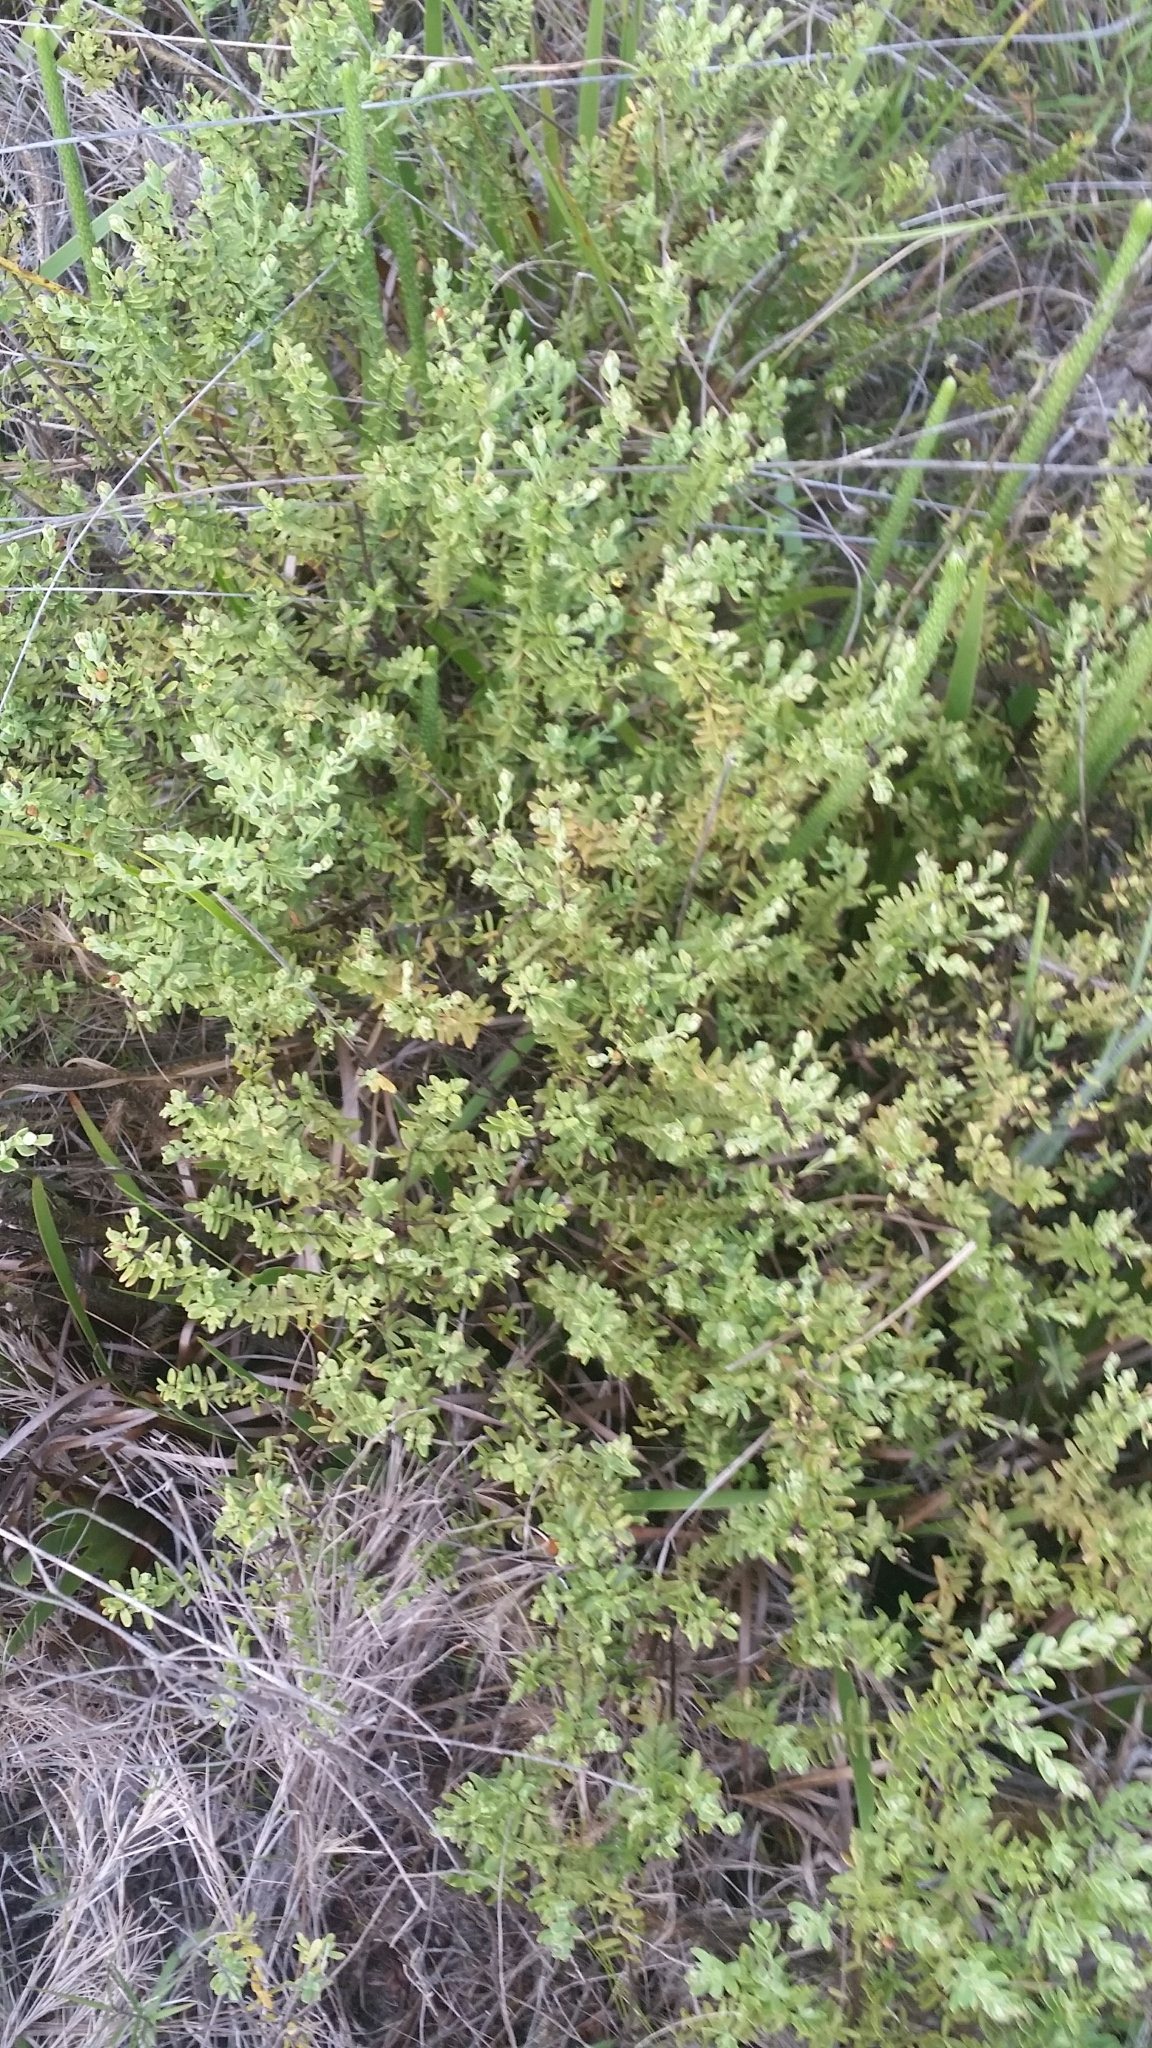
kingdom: Plantae
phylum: Tracheophyta
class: Magnoliopsida
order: Malpighiales
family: Hypericaceae
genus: Hypericum
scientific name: Hypericum microsepalum
